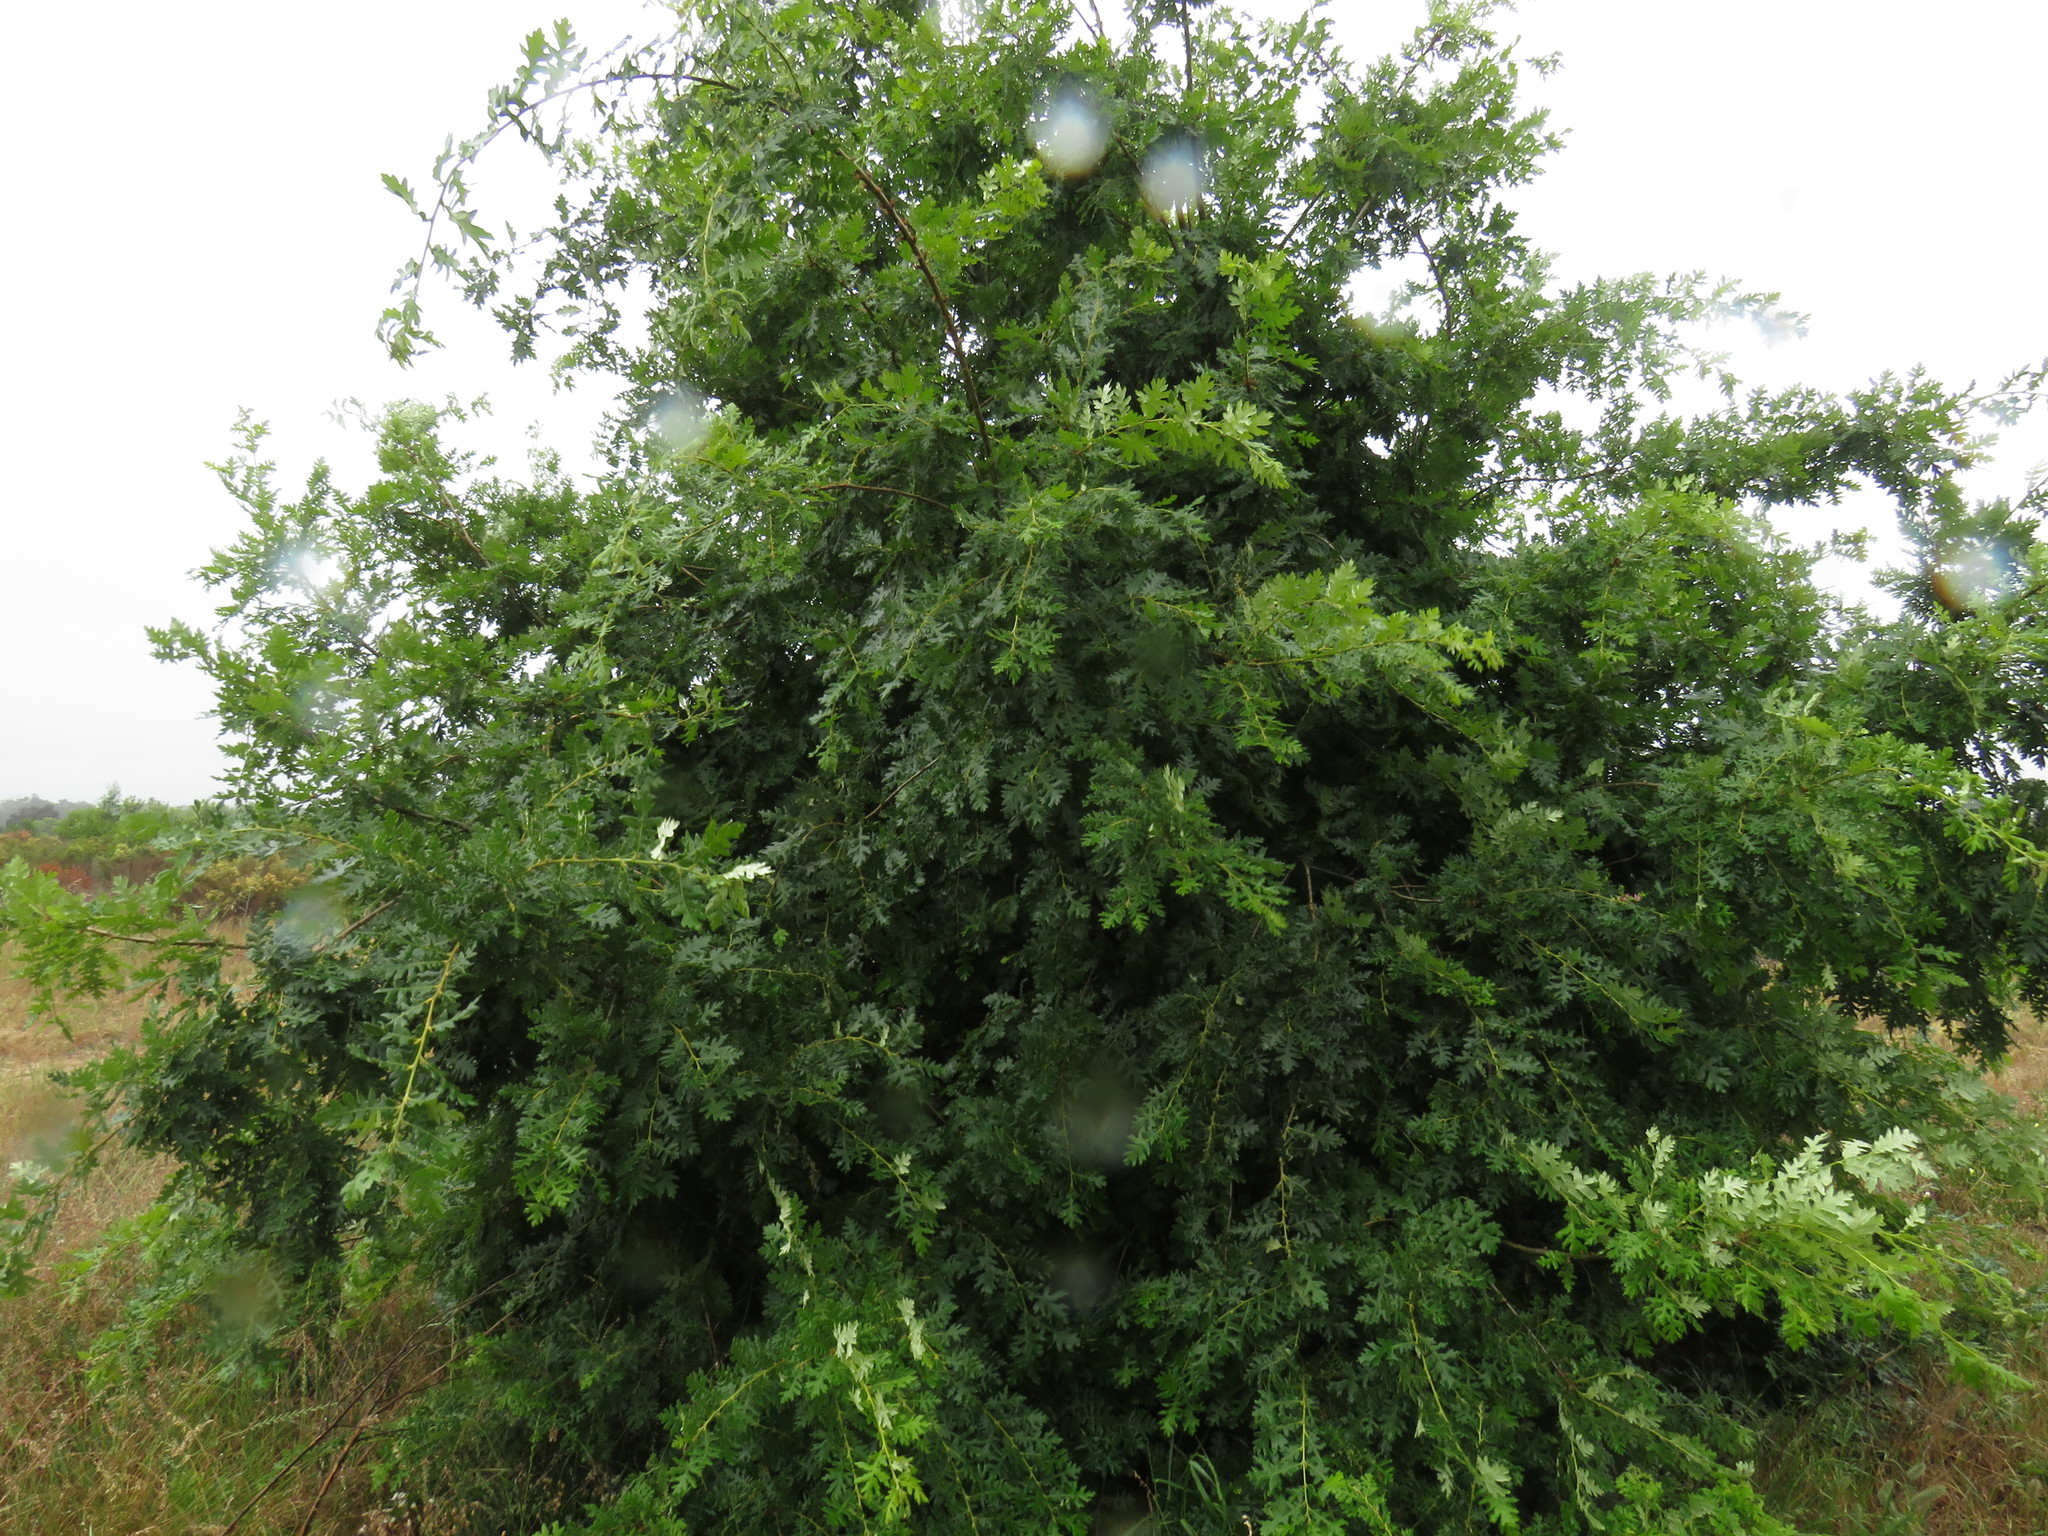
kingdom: Plantae
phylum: Tracheophyta
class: Magnoliopsida
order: Fagales
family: Fagaceae
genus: Quercus
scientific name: Quercus cerris
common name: Turkey oak
